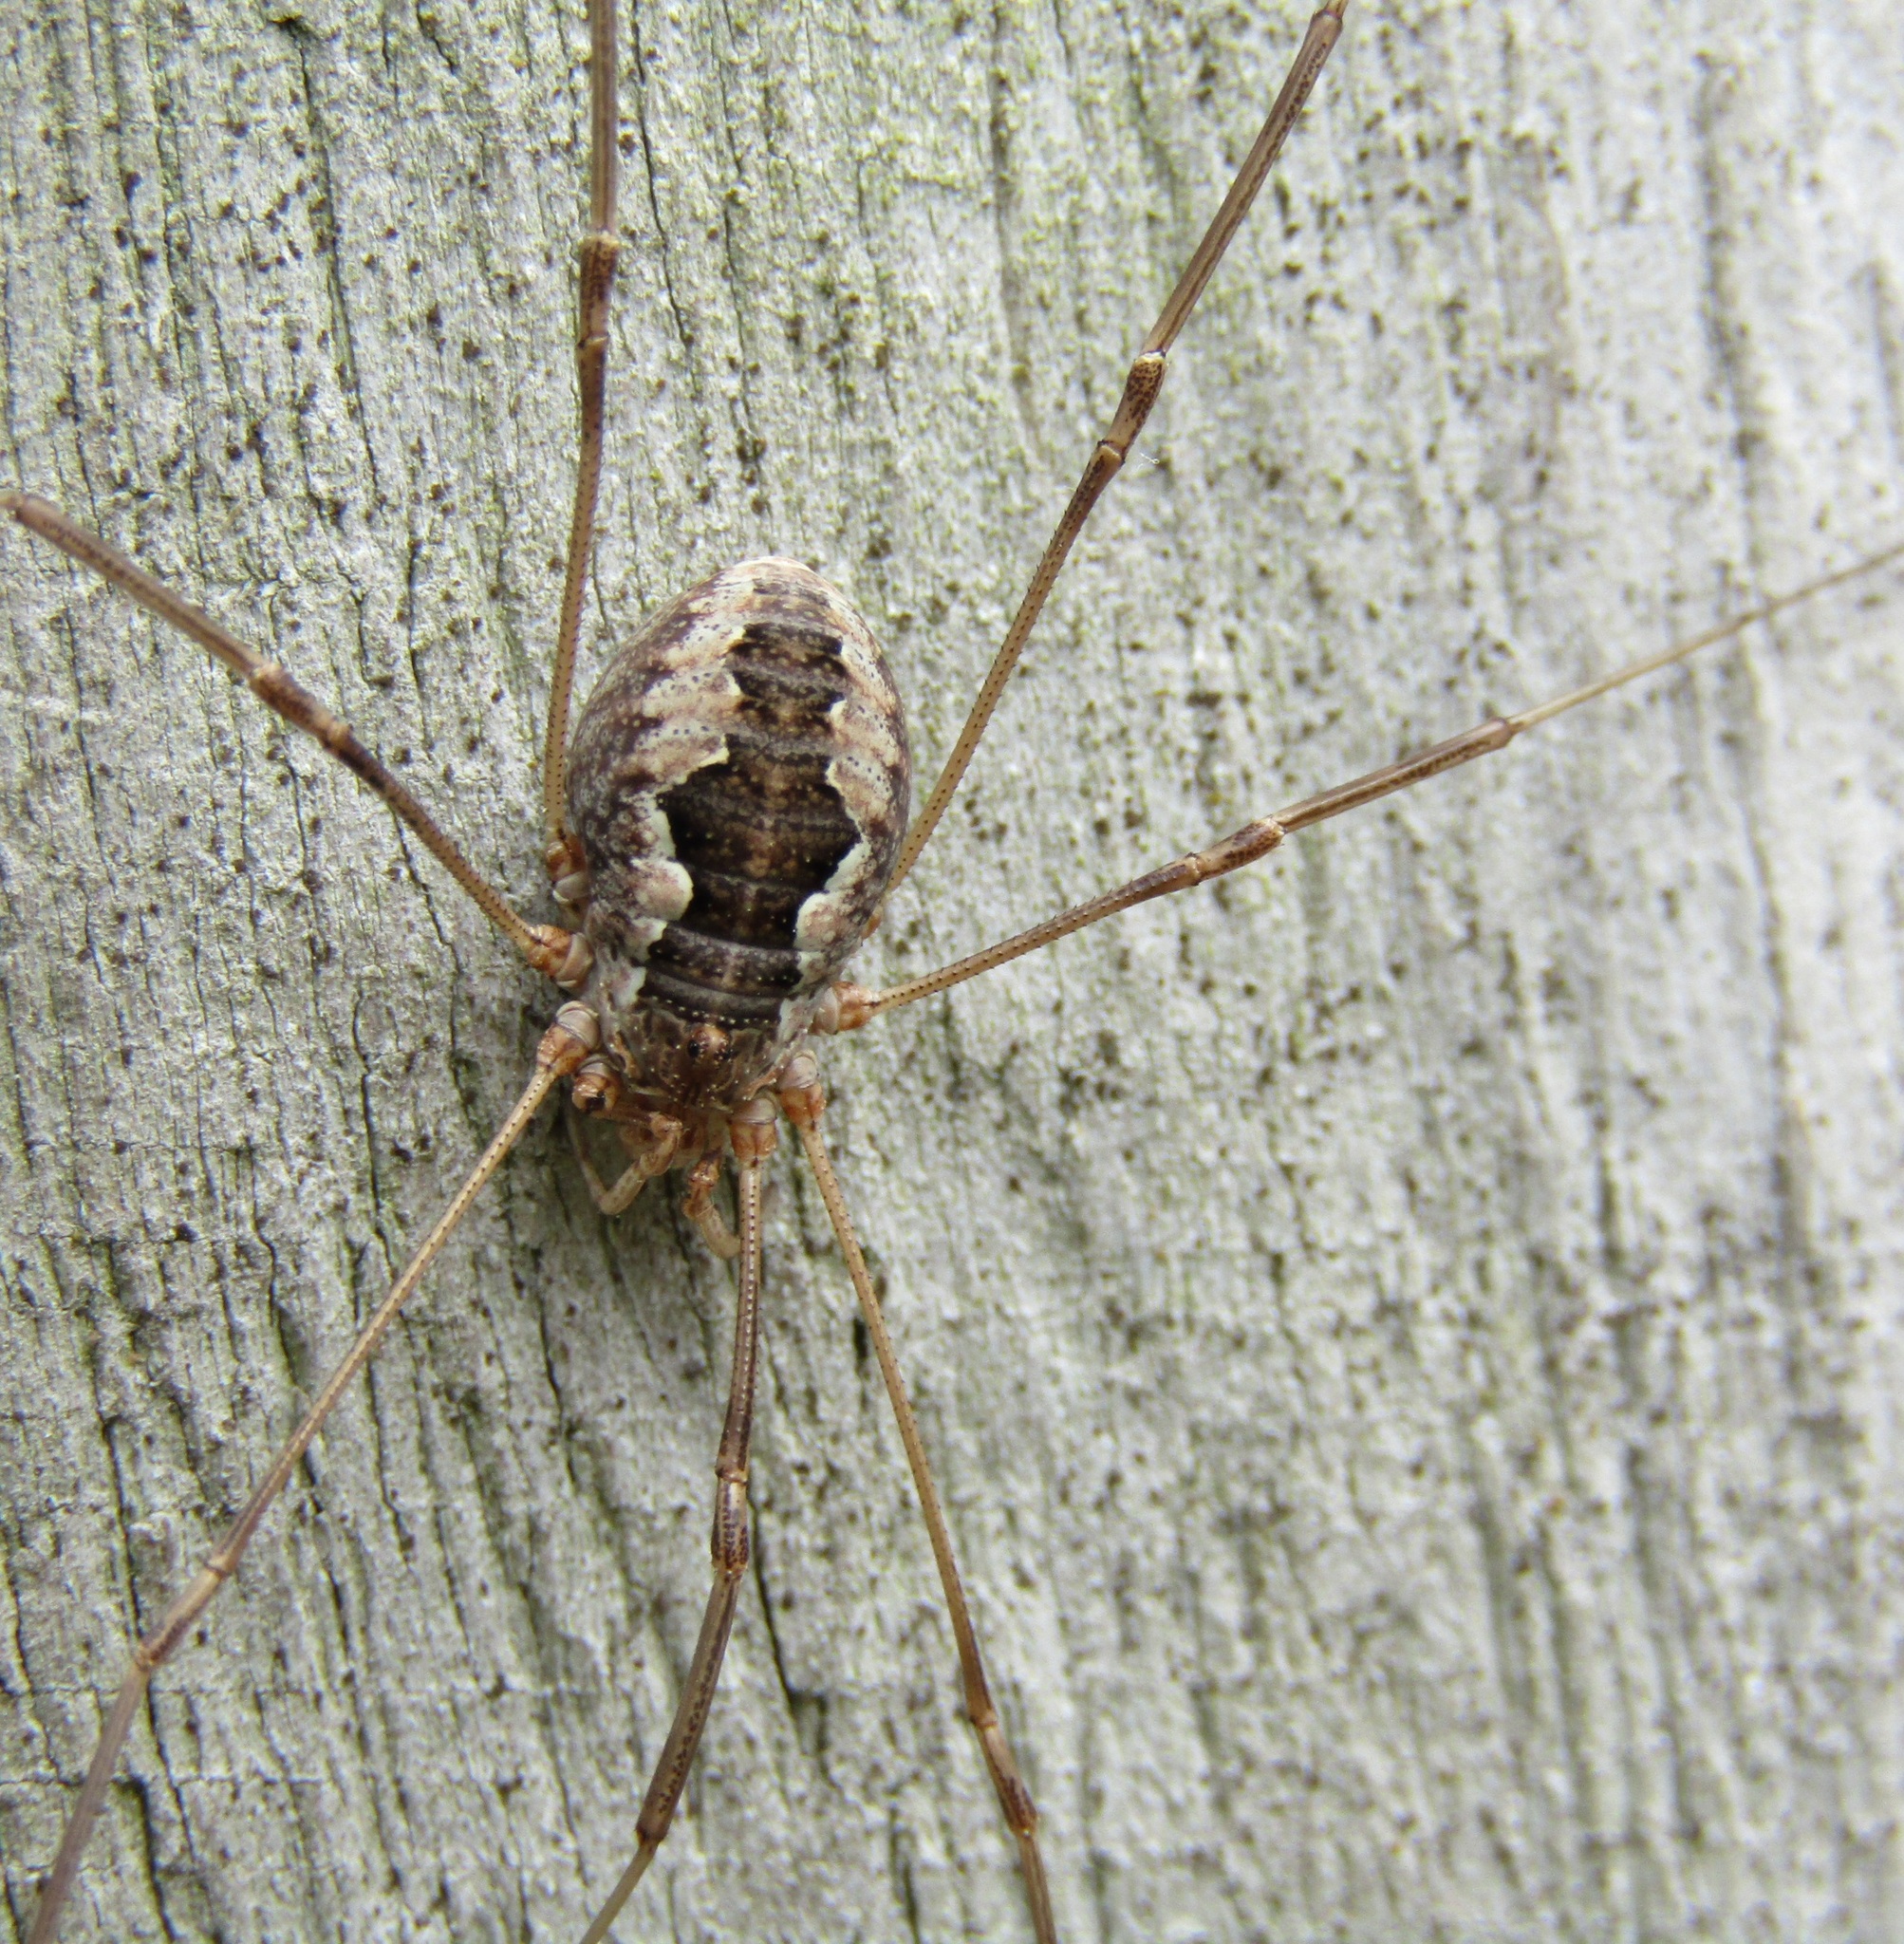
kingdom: Animalia
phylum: Arthropoda
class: Arachnida
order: Opiliones
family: Phalangiidae
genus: Phalangium
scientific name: Phalangium opilio
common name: Daddy longleg
